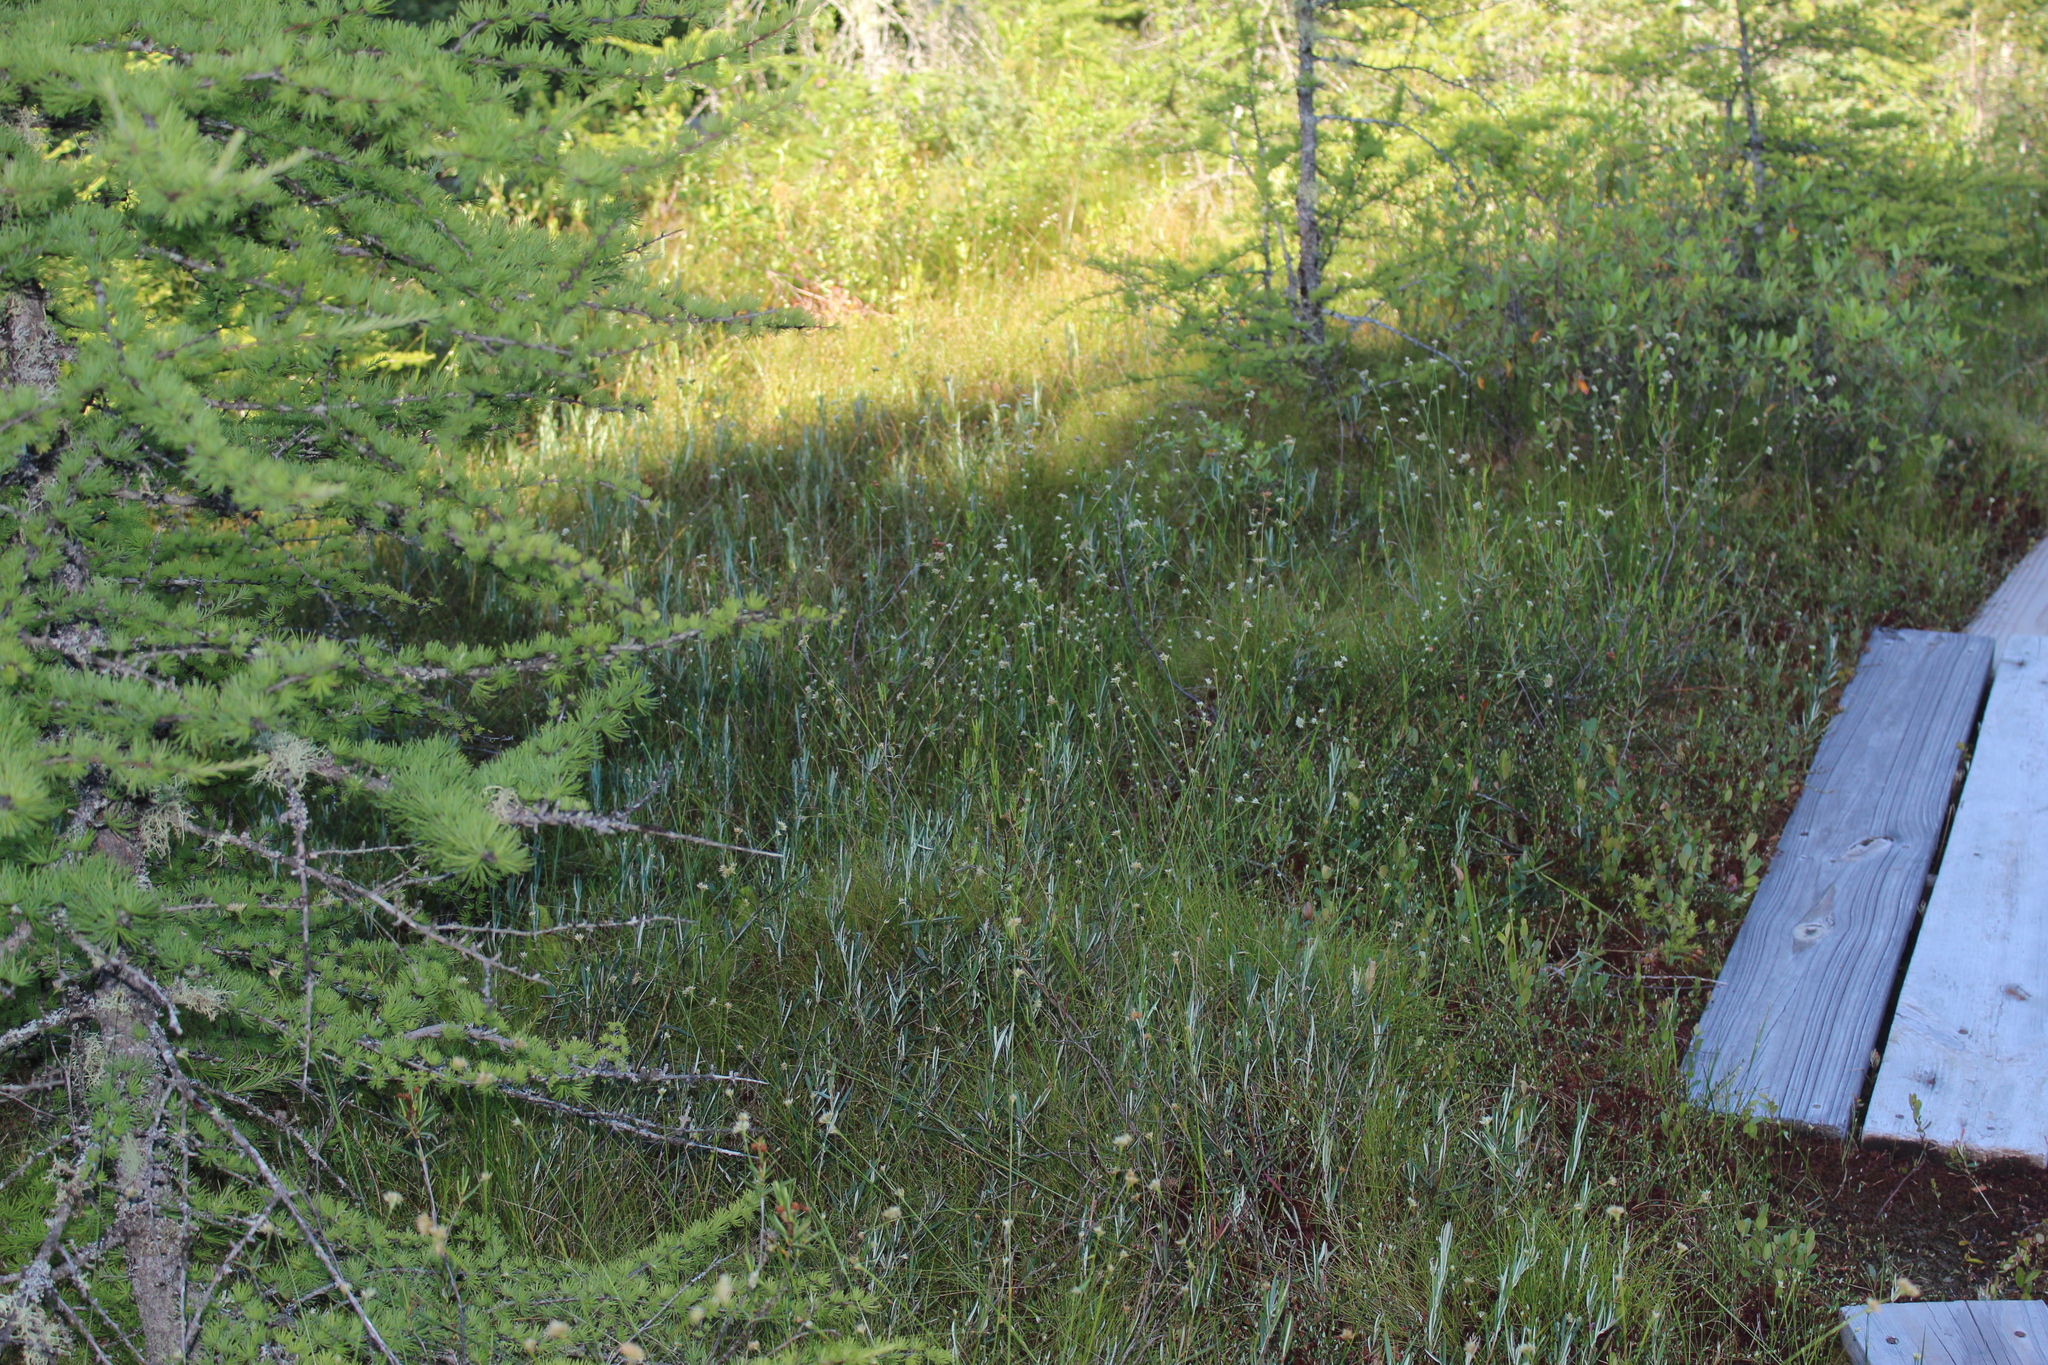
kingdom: Plantae
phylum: Tracheophyta
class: Liliopsida
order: Poales
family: Cyperaceae
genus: Rhynchospora
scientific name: Rhynchospora alba
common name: White beak-sedge
